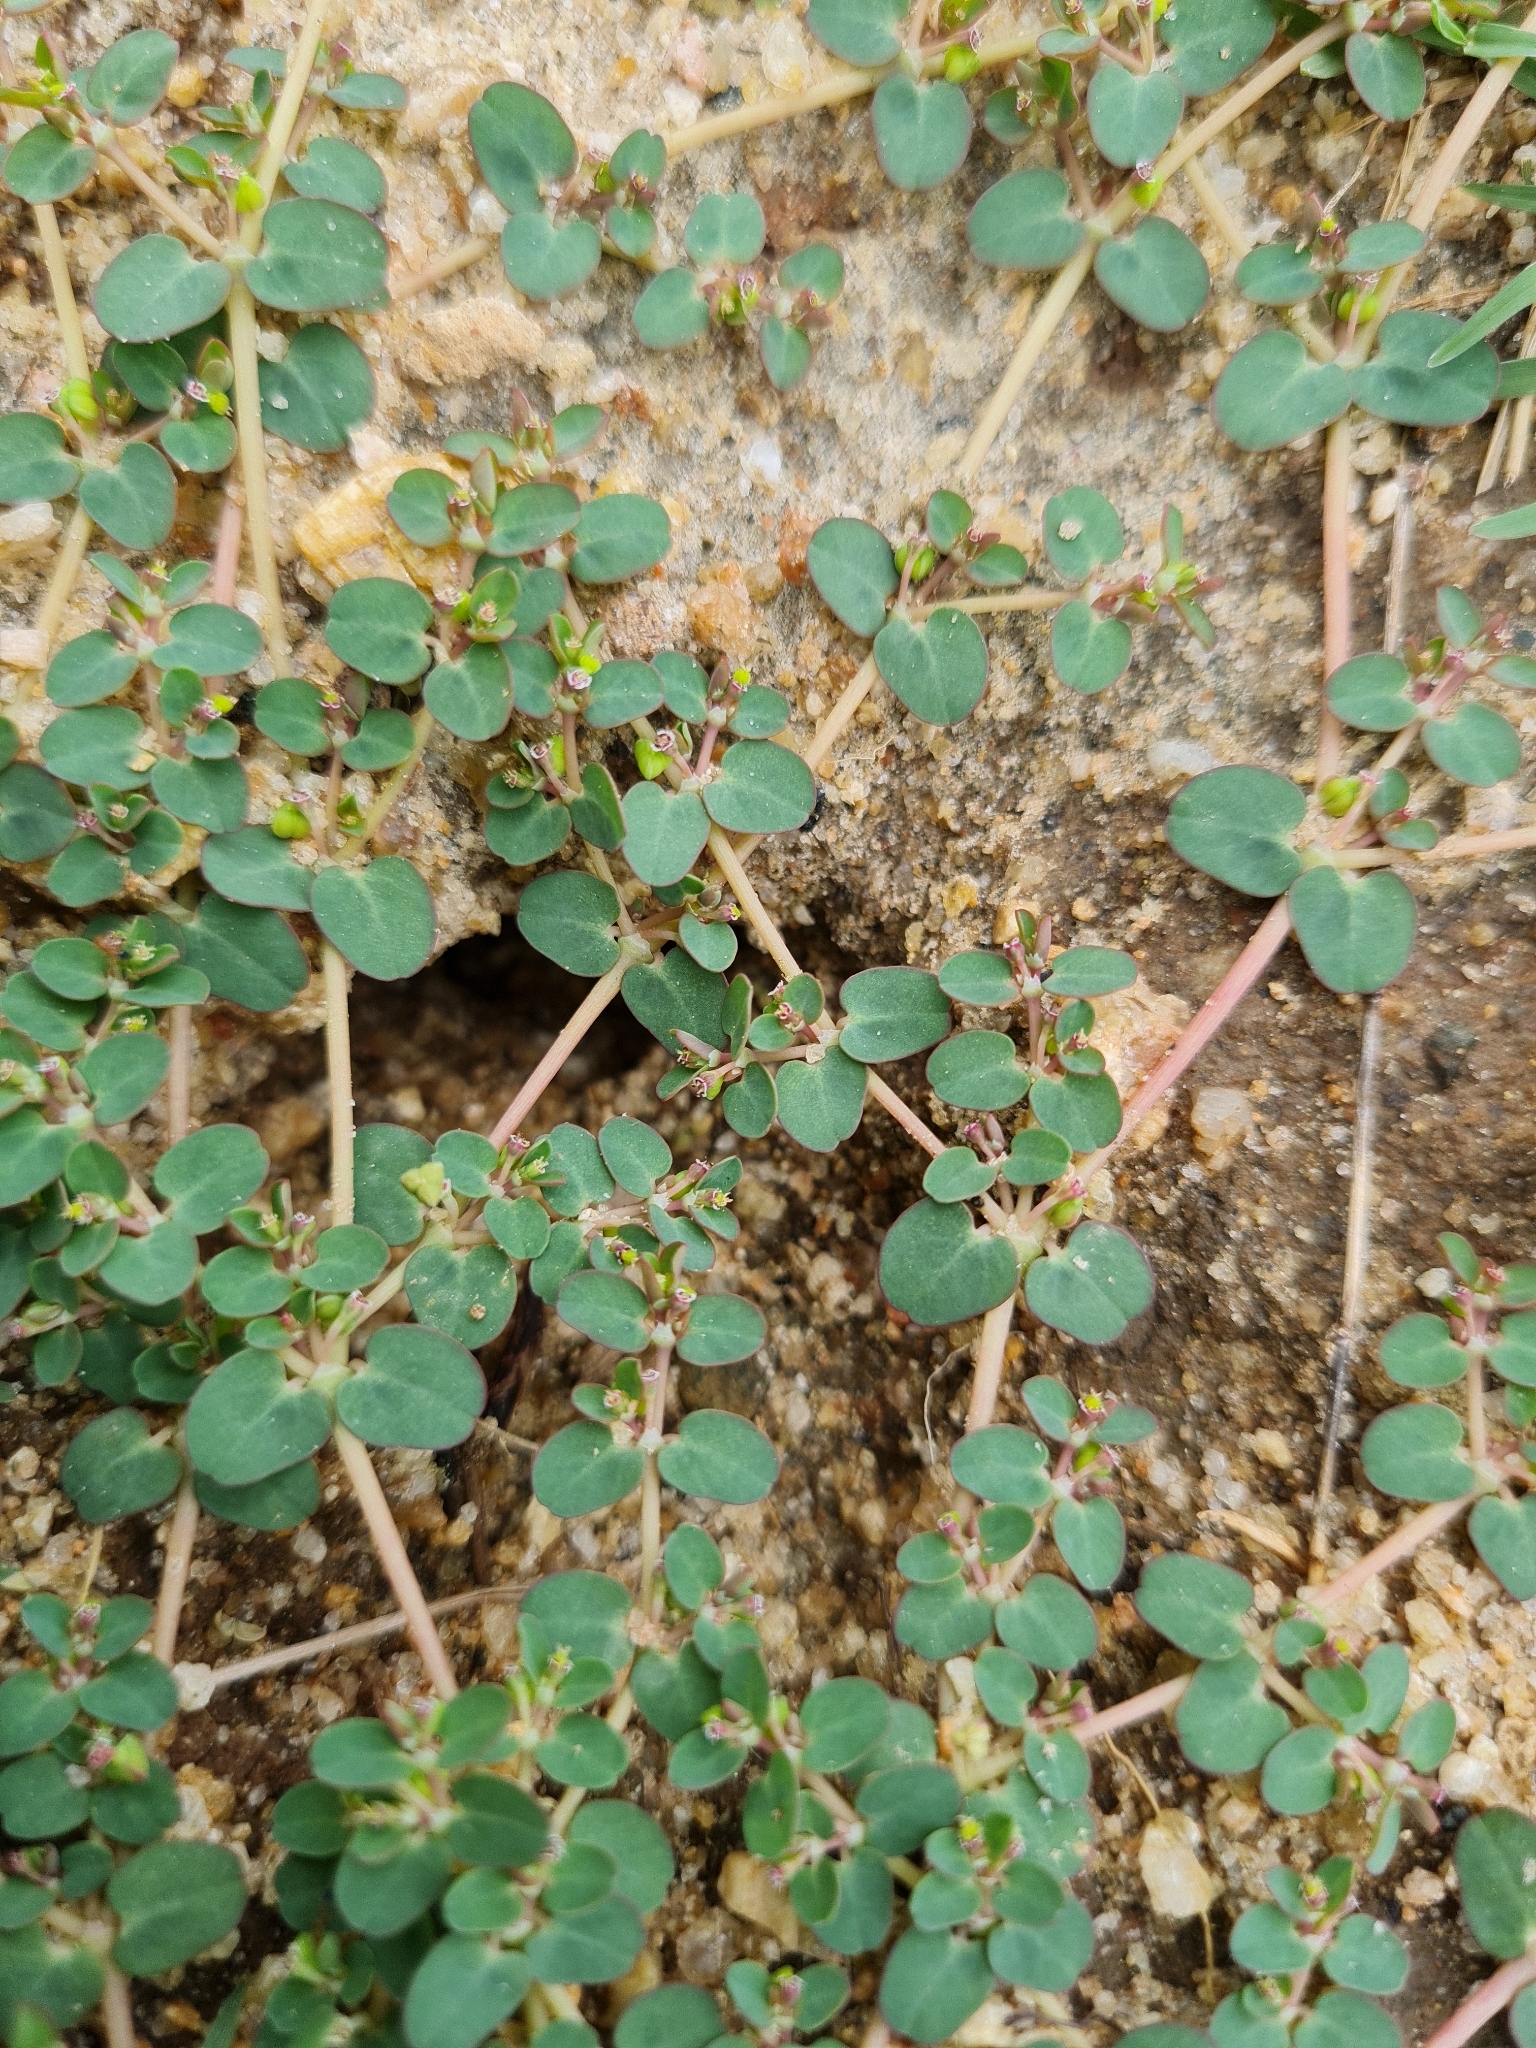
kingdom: Plantae
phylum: Tracheophyta
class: Magnoliopsida
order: Malpighiales
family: Euphorbiaceae
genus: Euphorbia
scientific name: Euphorbia serpens
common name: Matted sandmat
